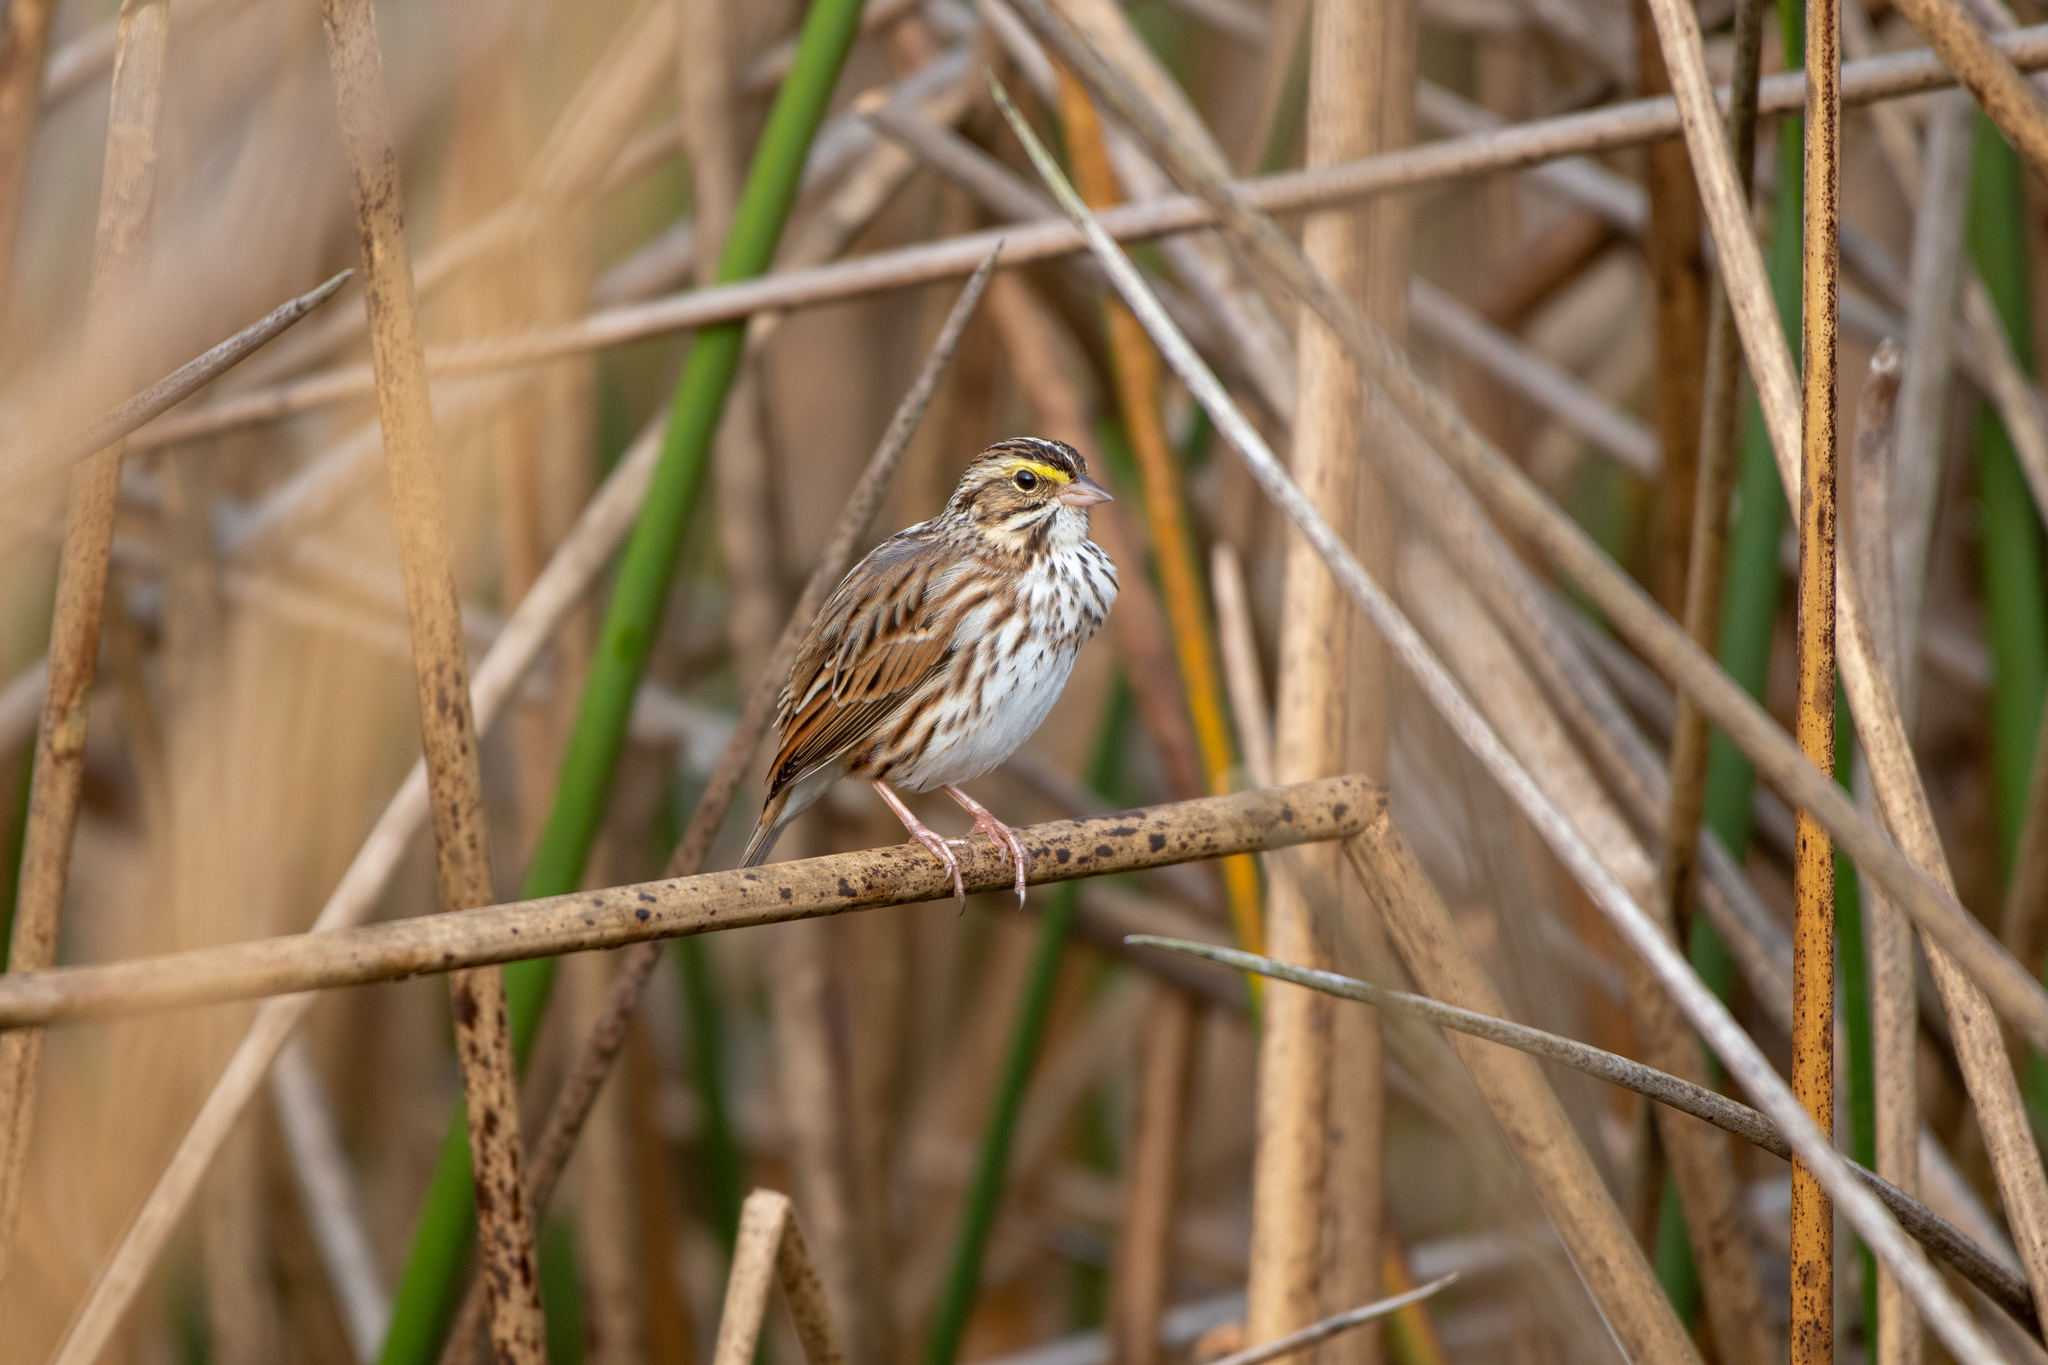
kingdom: Animalia
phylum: Chordata
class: Aves
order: Passeriformes
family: Passerellidae
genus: Passerculus
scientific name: Passerculus sandwichensis
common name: Savannah sparrow
